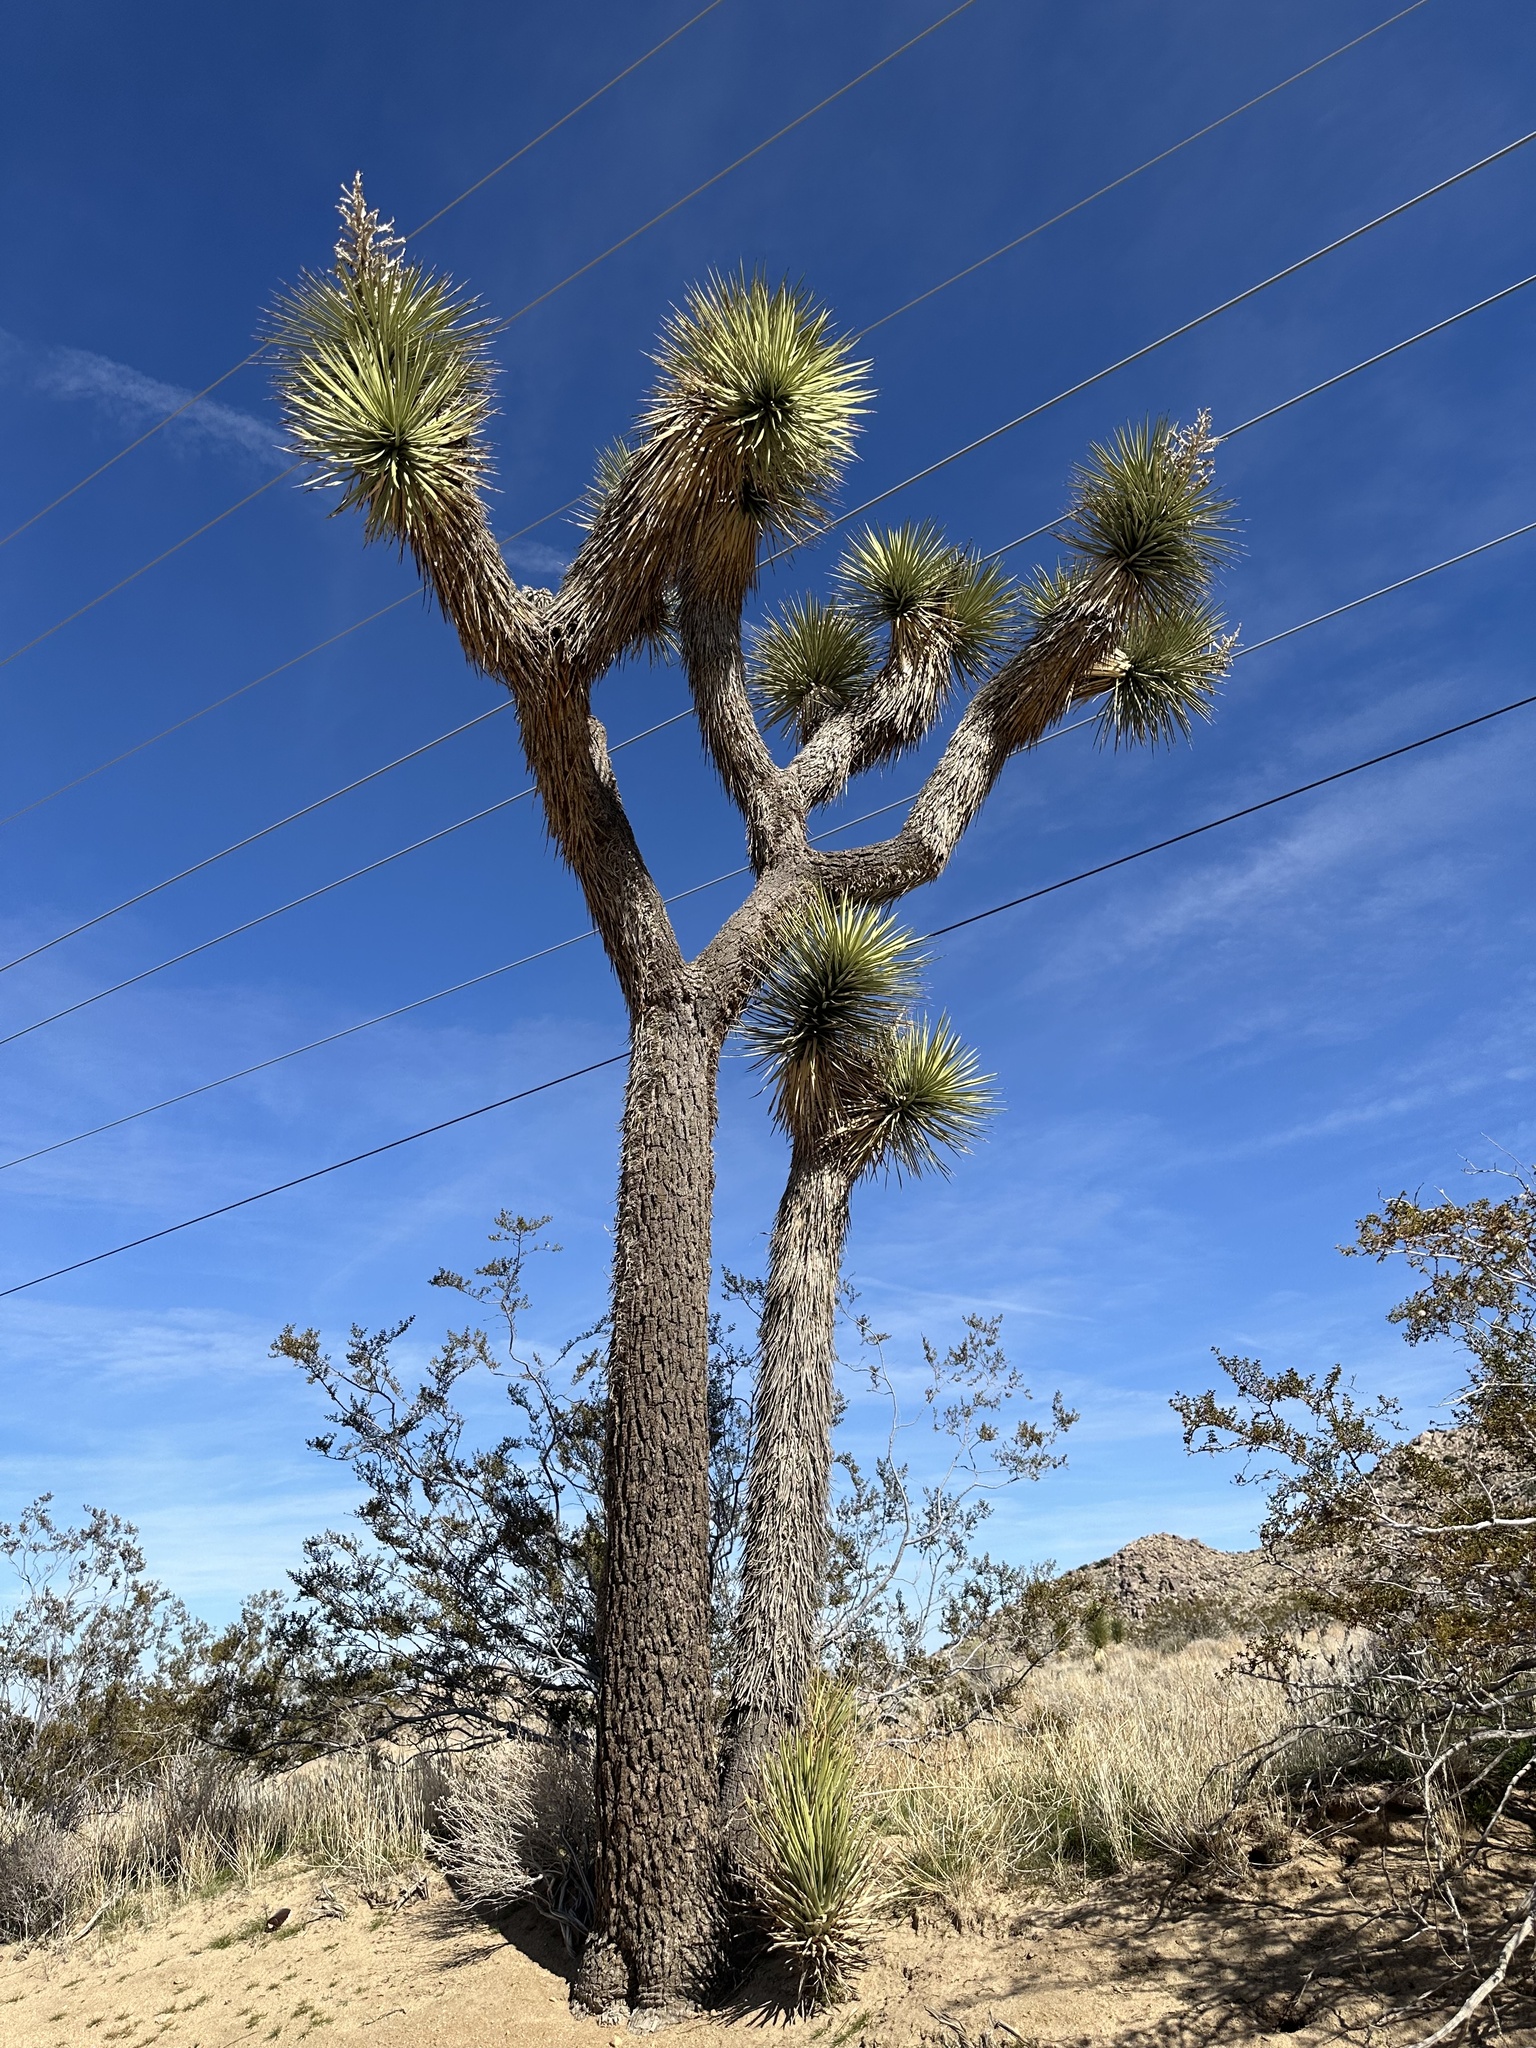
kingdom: Plantae
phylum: Tracheophyta
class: Liliopsida
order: Asparagales
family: Asparagaceae
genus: Yucca
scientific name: Yucca brevifolia
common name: Joshua tree
